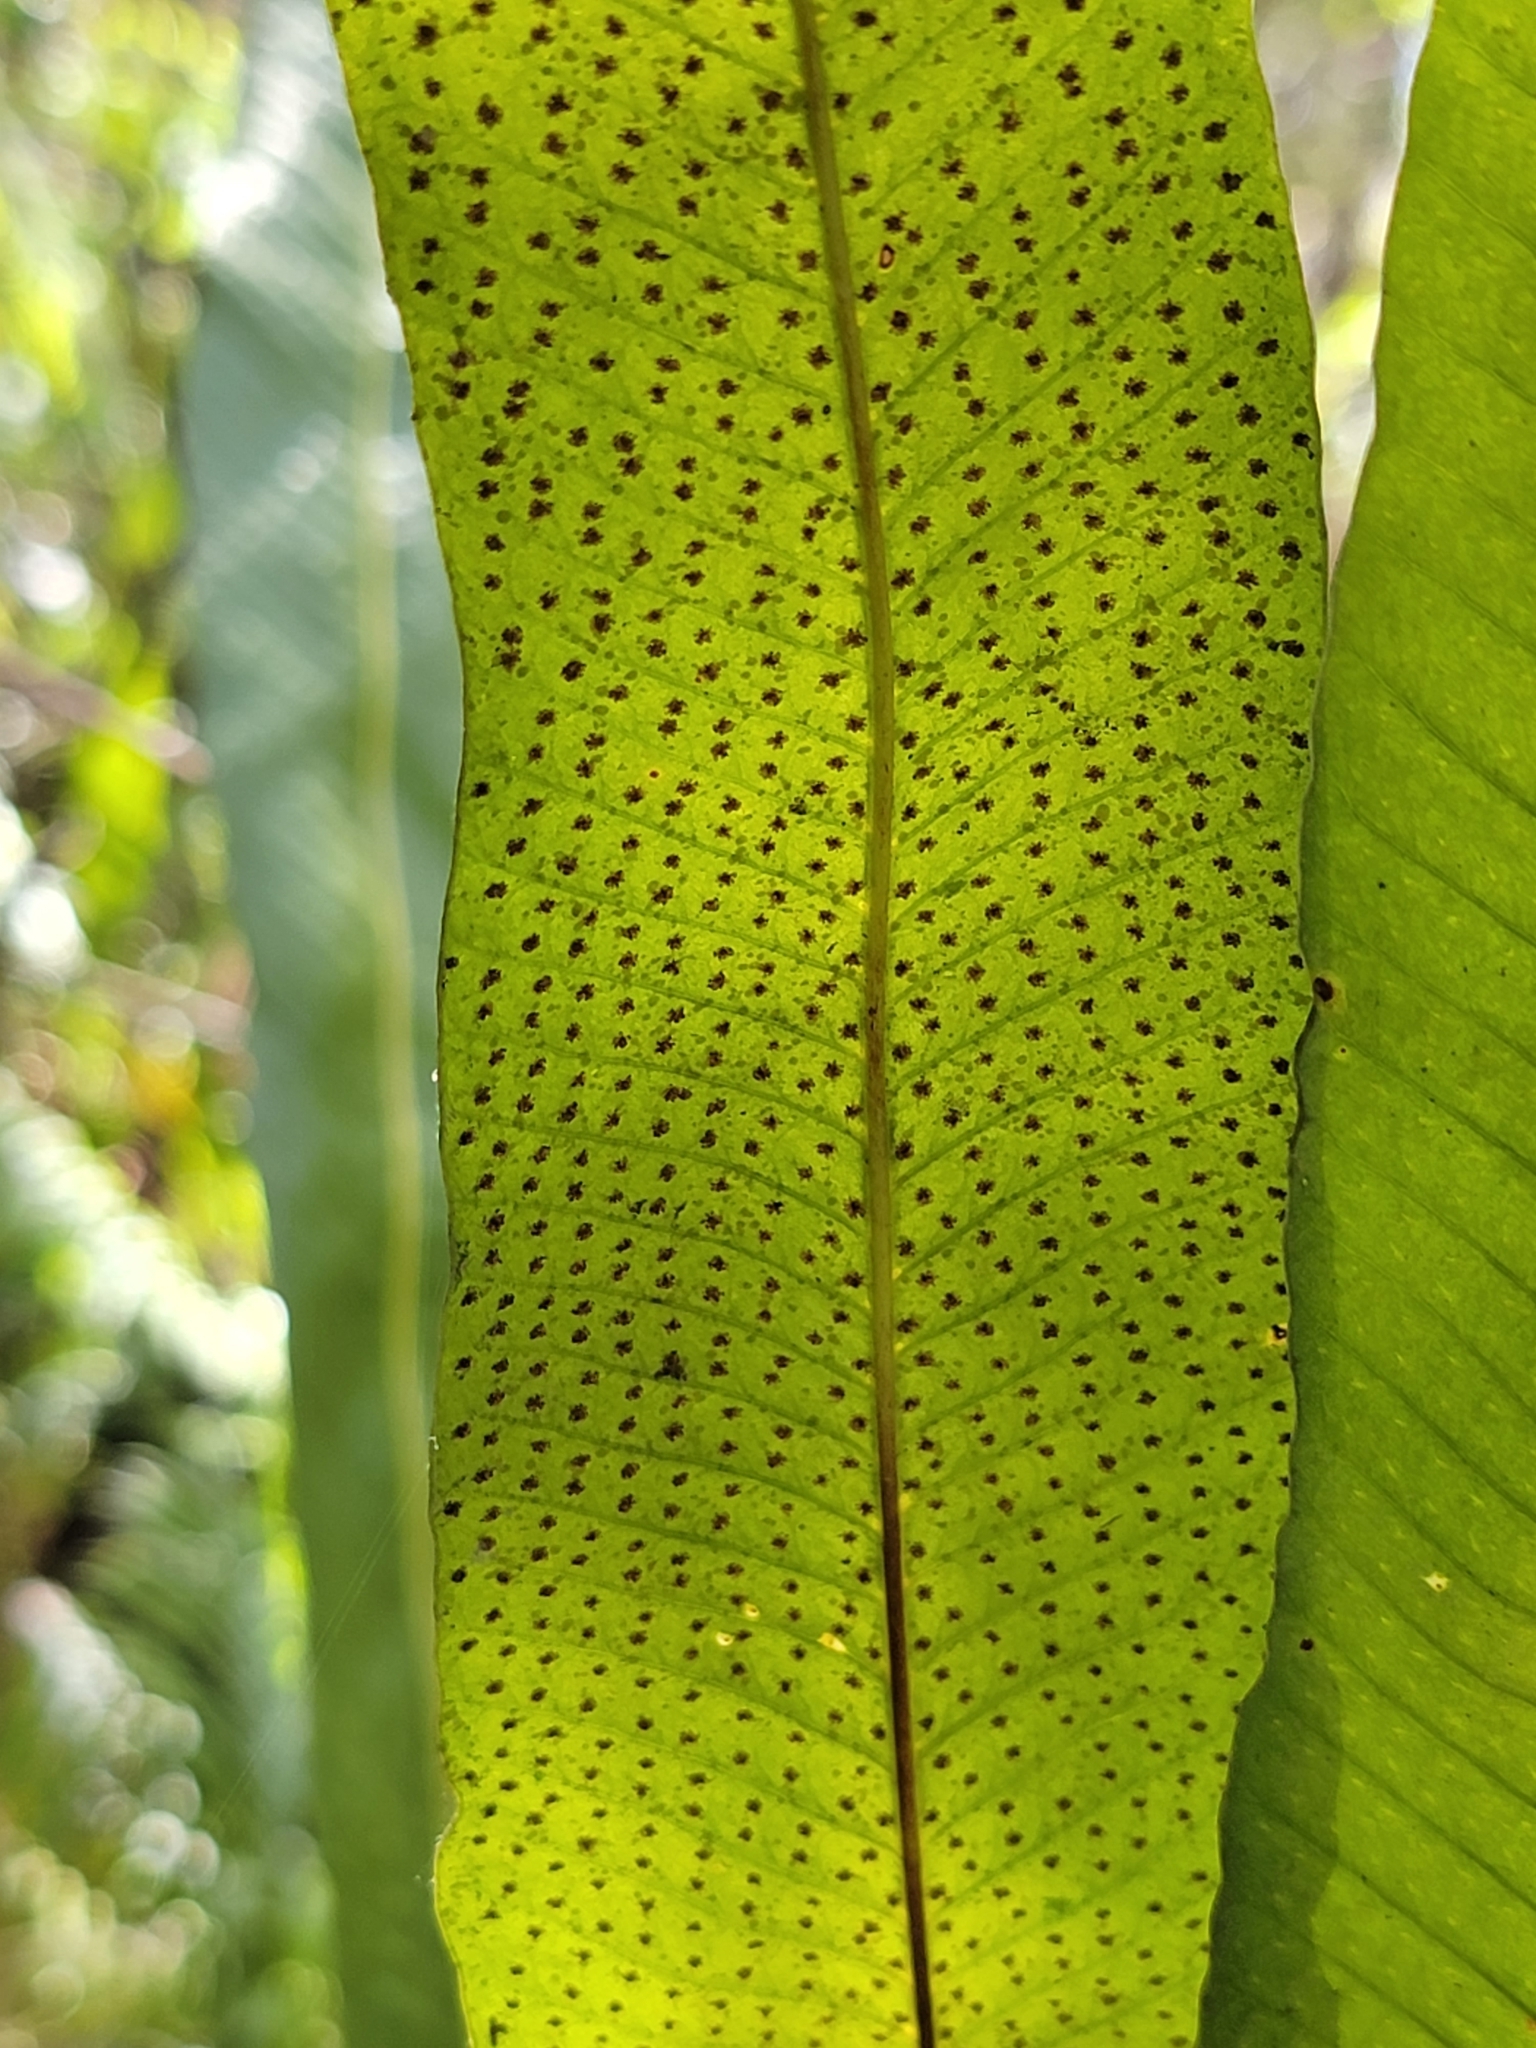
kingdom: Plantae
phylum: Tracheophyta
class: Polypodiopsida
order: Polypodiales
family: Polypodiaceae
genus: Campyloneurum
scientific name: Campyloneurum phyllitidis
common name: Cow-tongue fern
